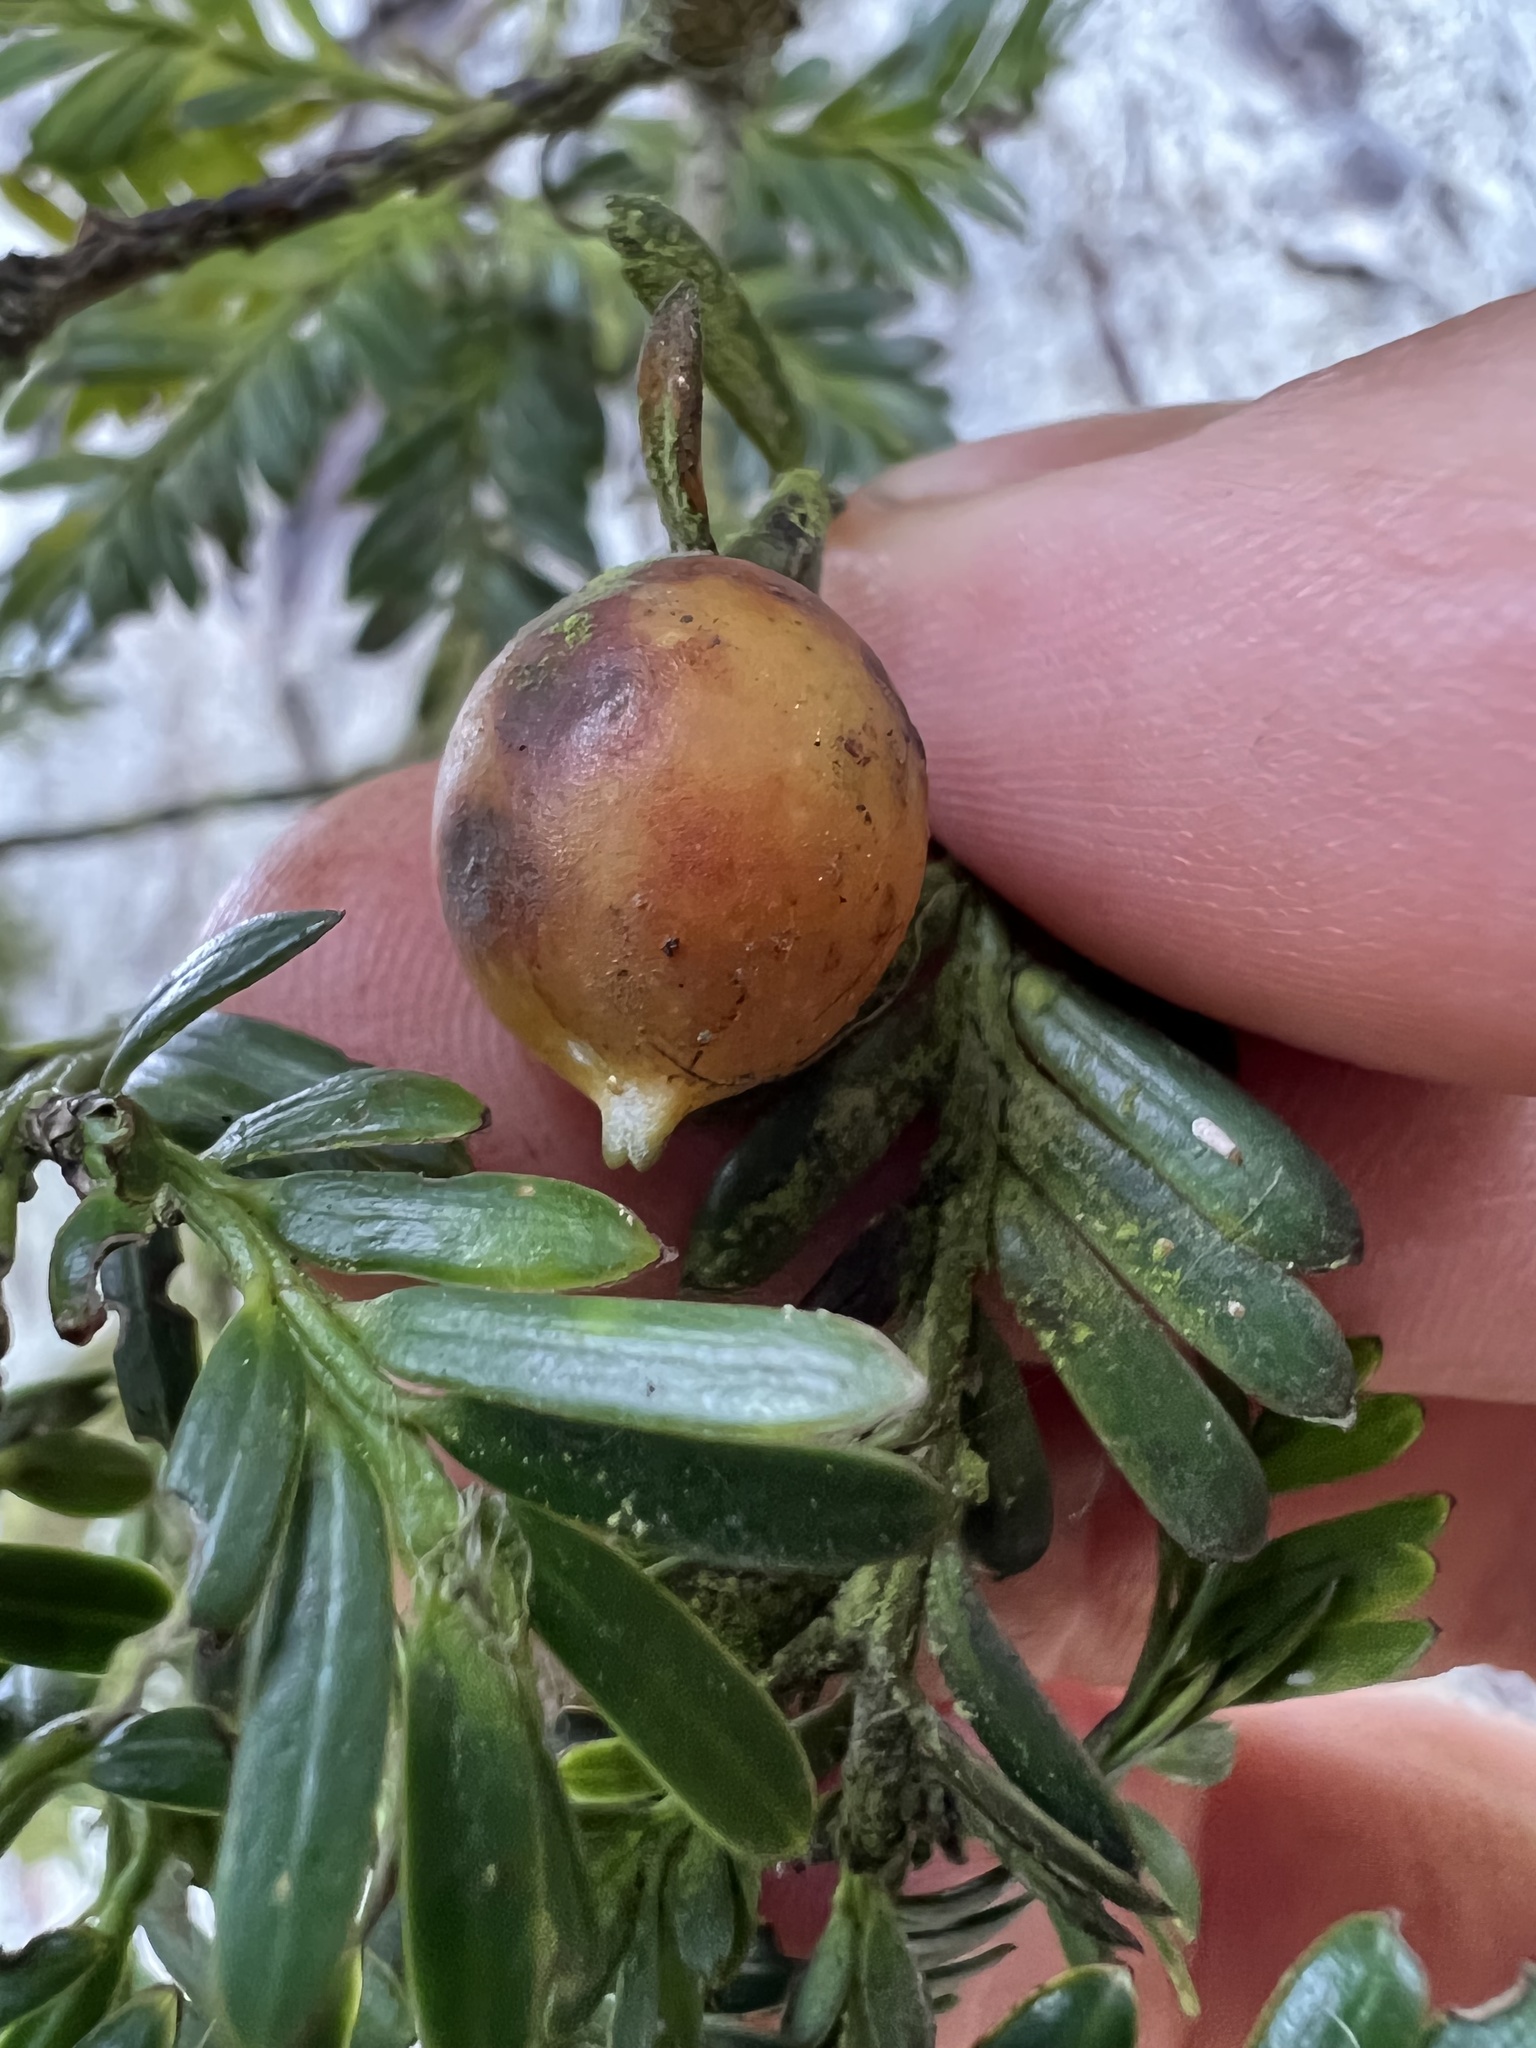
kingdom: Plantae
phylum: Tracheophyta
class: Pinopsida
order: Pinales
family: Podocarpaceae
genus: Prumnopitys
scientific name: Prumnopitys montana
